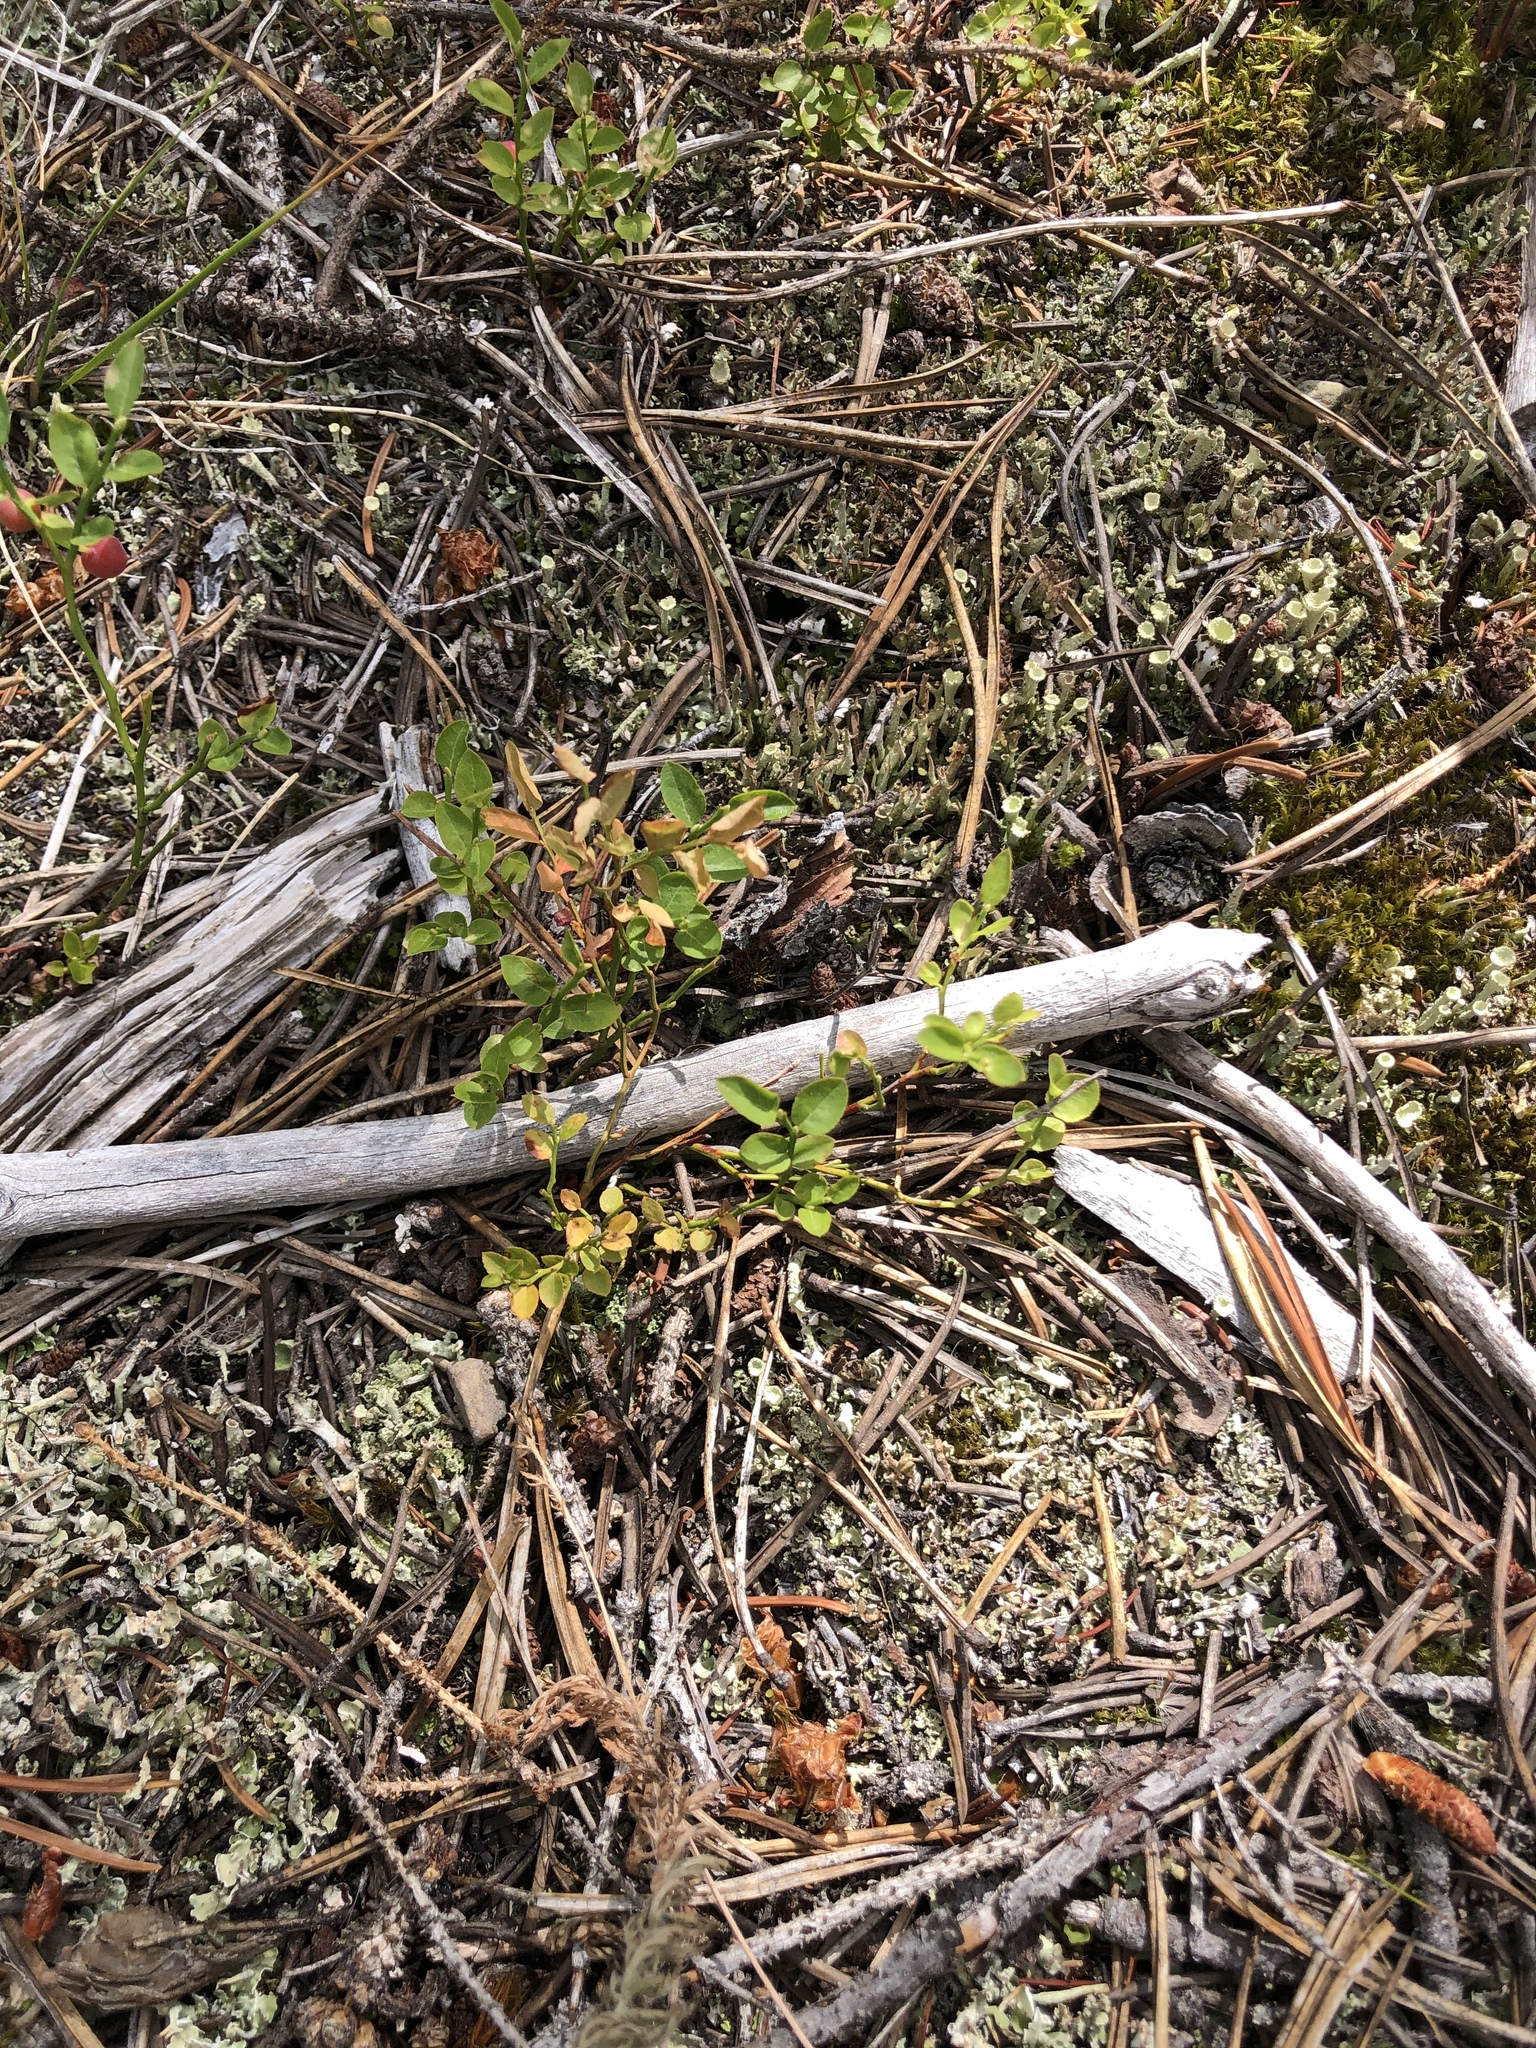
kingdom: Plantae
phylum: Tracheophyta
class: Magnoliopsida
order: Ericales
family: Ericaceae
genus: Vaccinium
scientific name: Vaccinium scoparium
